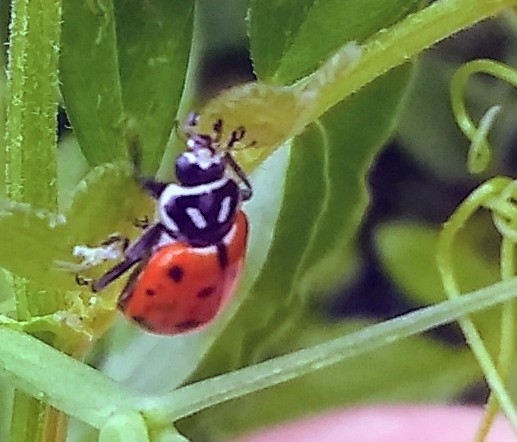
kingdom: Animalia
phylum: Arthropoda
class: Insecta
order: Coleoptera
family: Coccinellidae
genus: Hippodamia
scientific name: Hippodamia convergens
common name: Convergent lady beetle
